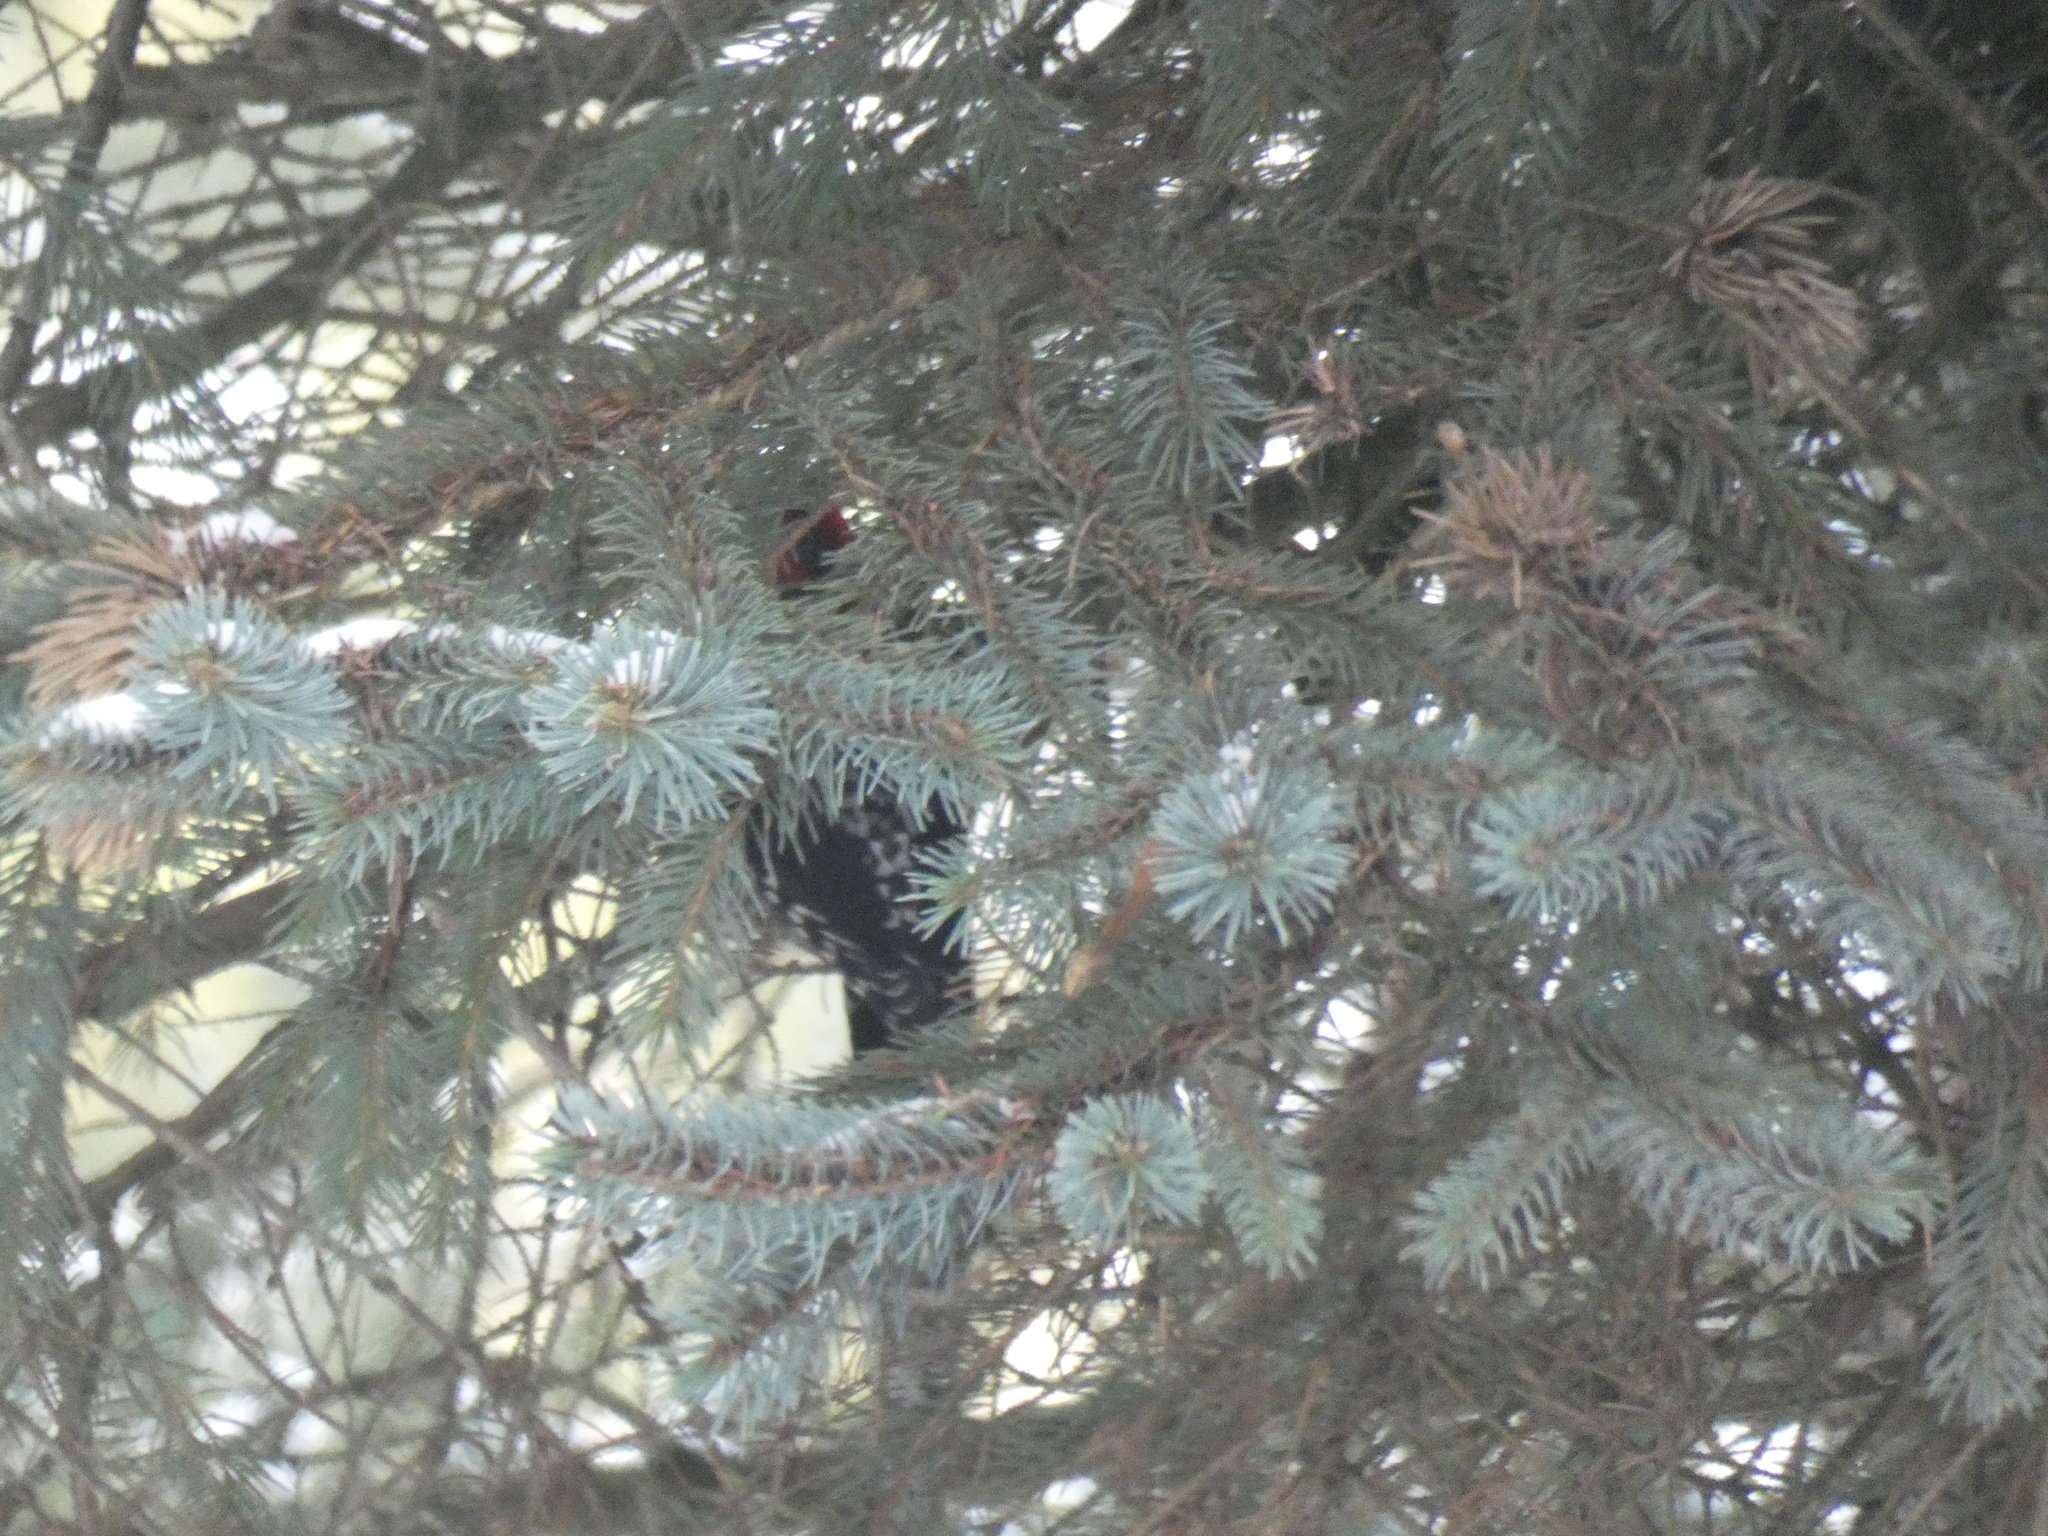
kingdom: Animalia
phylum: Chordata
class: Aves
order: Piciformes
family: Picidae
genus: Sphyrapicus
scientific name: Sphyrapicus ruber
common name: Red-breasted sapsucker
